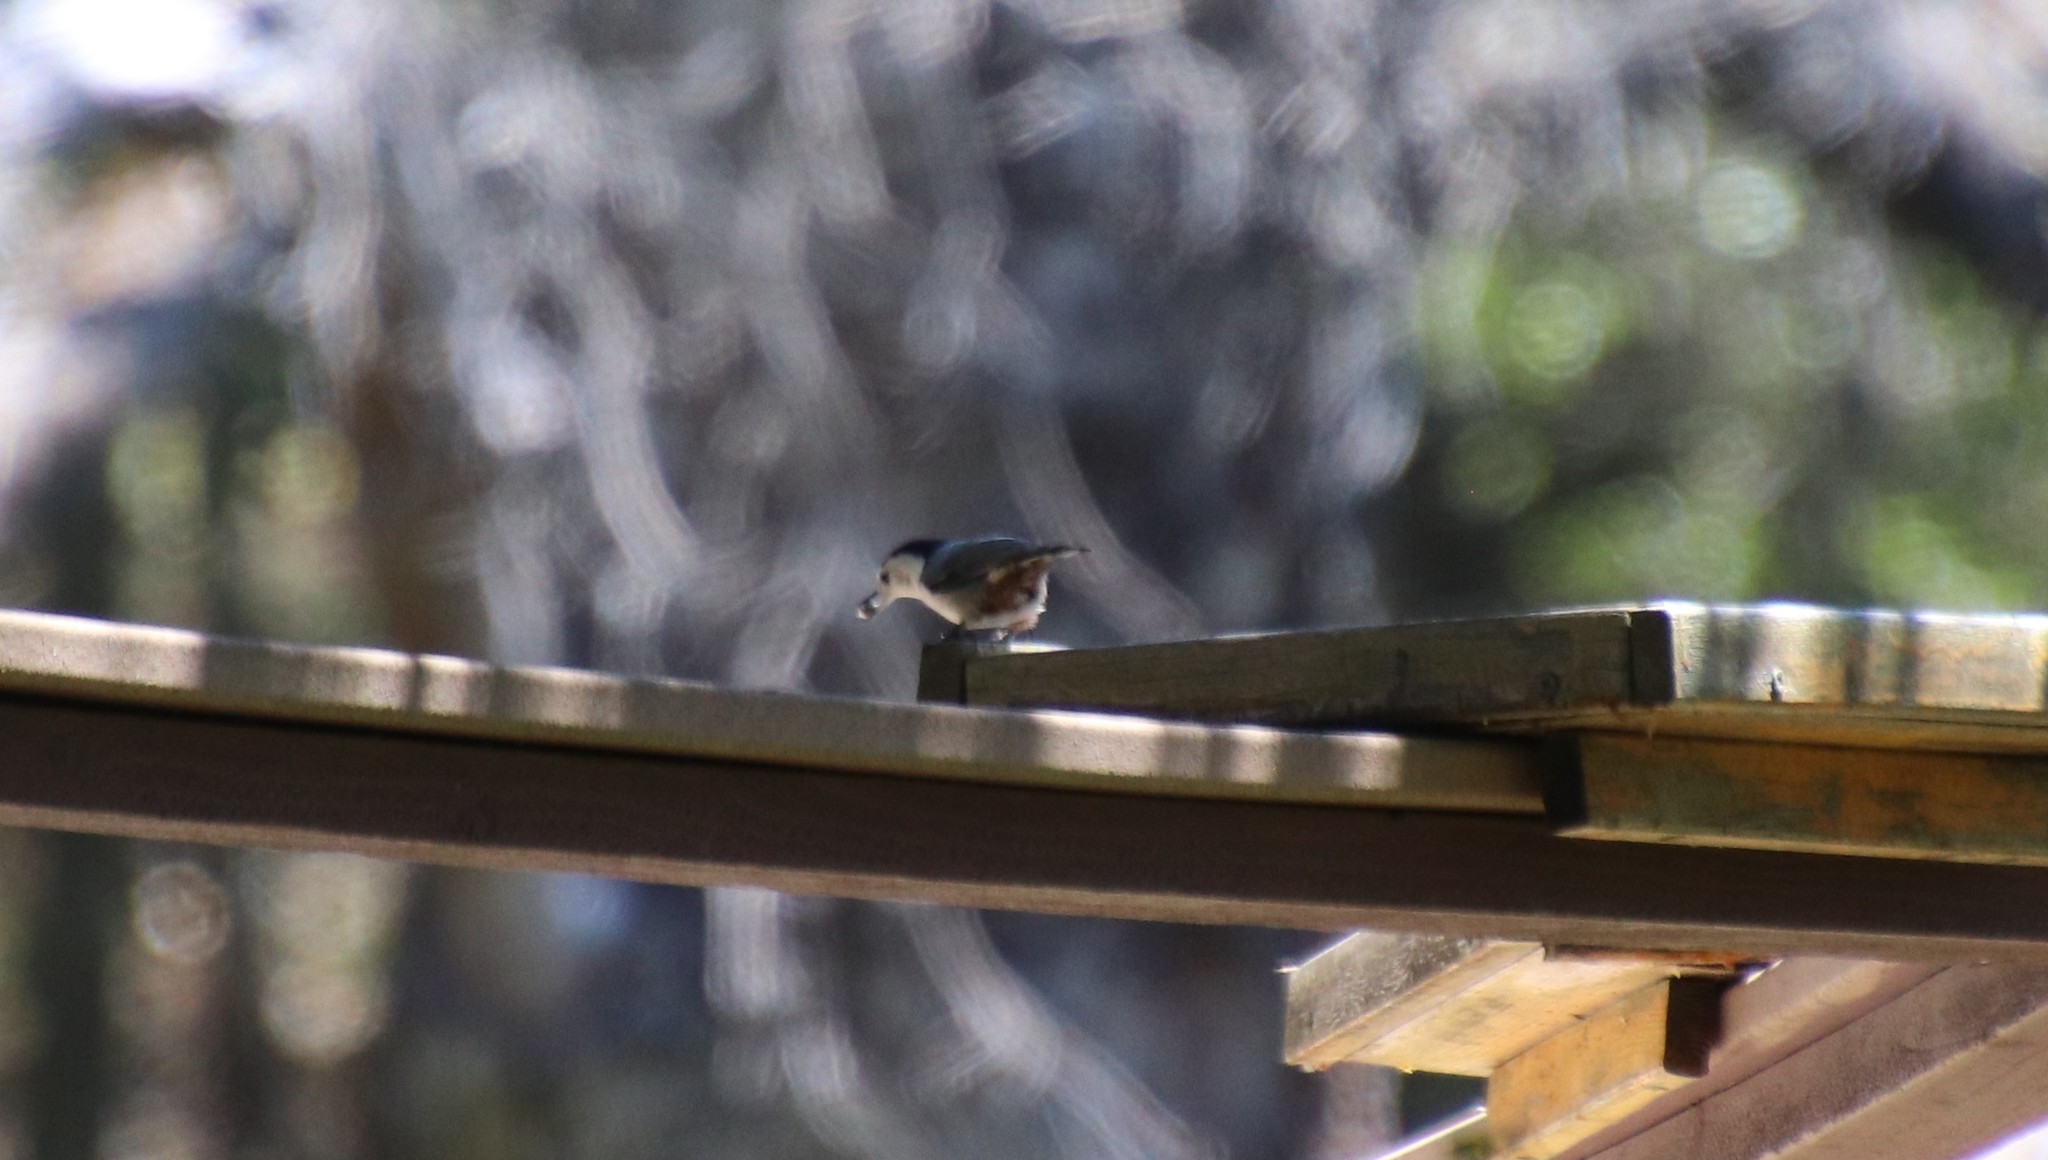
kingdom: Animalia
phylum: Chordata
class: Aves
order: Passeriformes
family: Sittidae
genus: Sitta
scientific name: Sitta carolinensis
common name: White-breasted nuthatch
